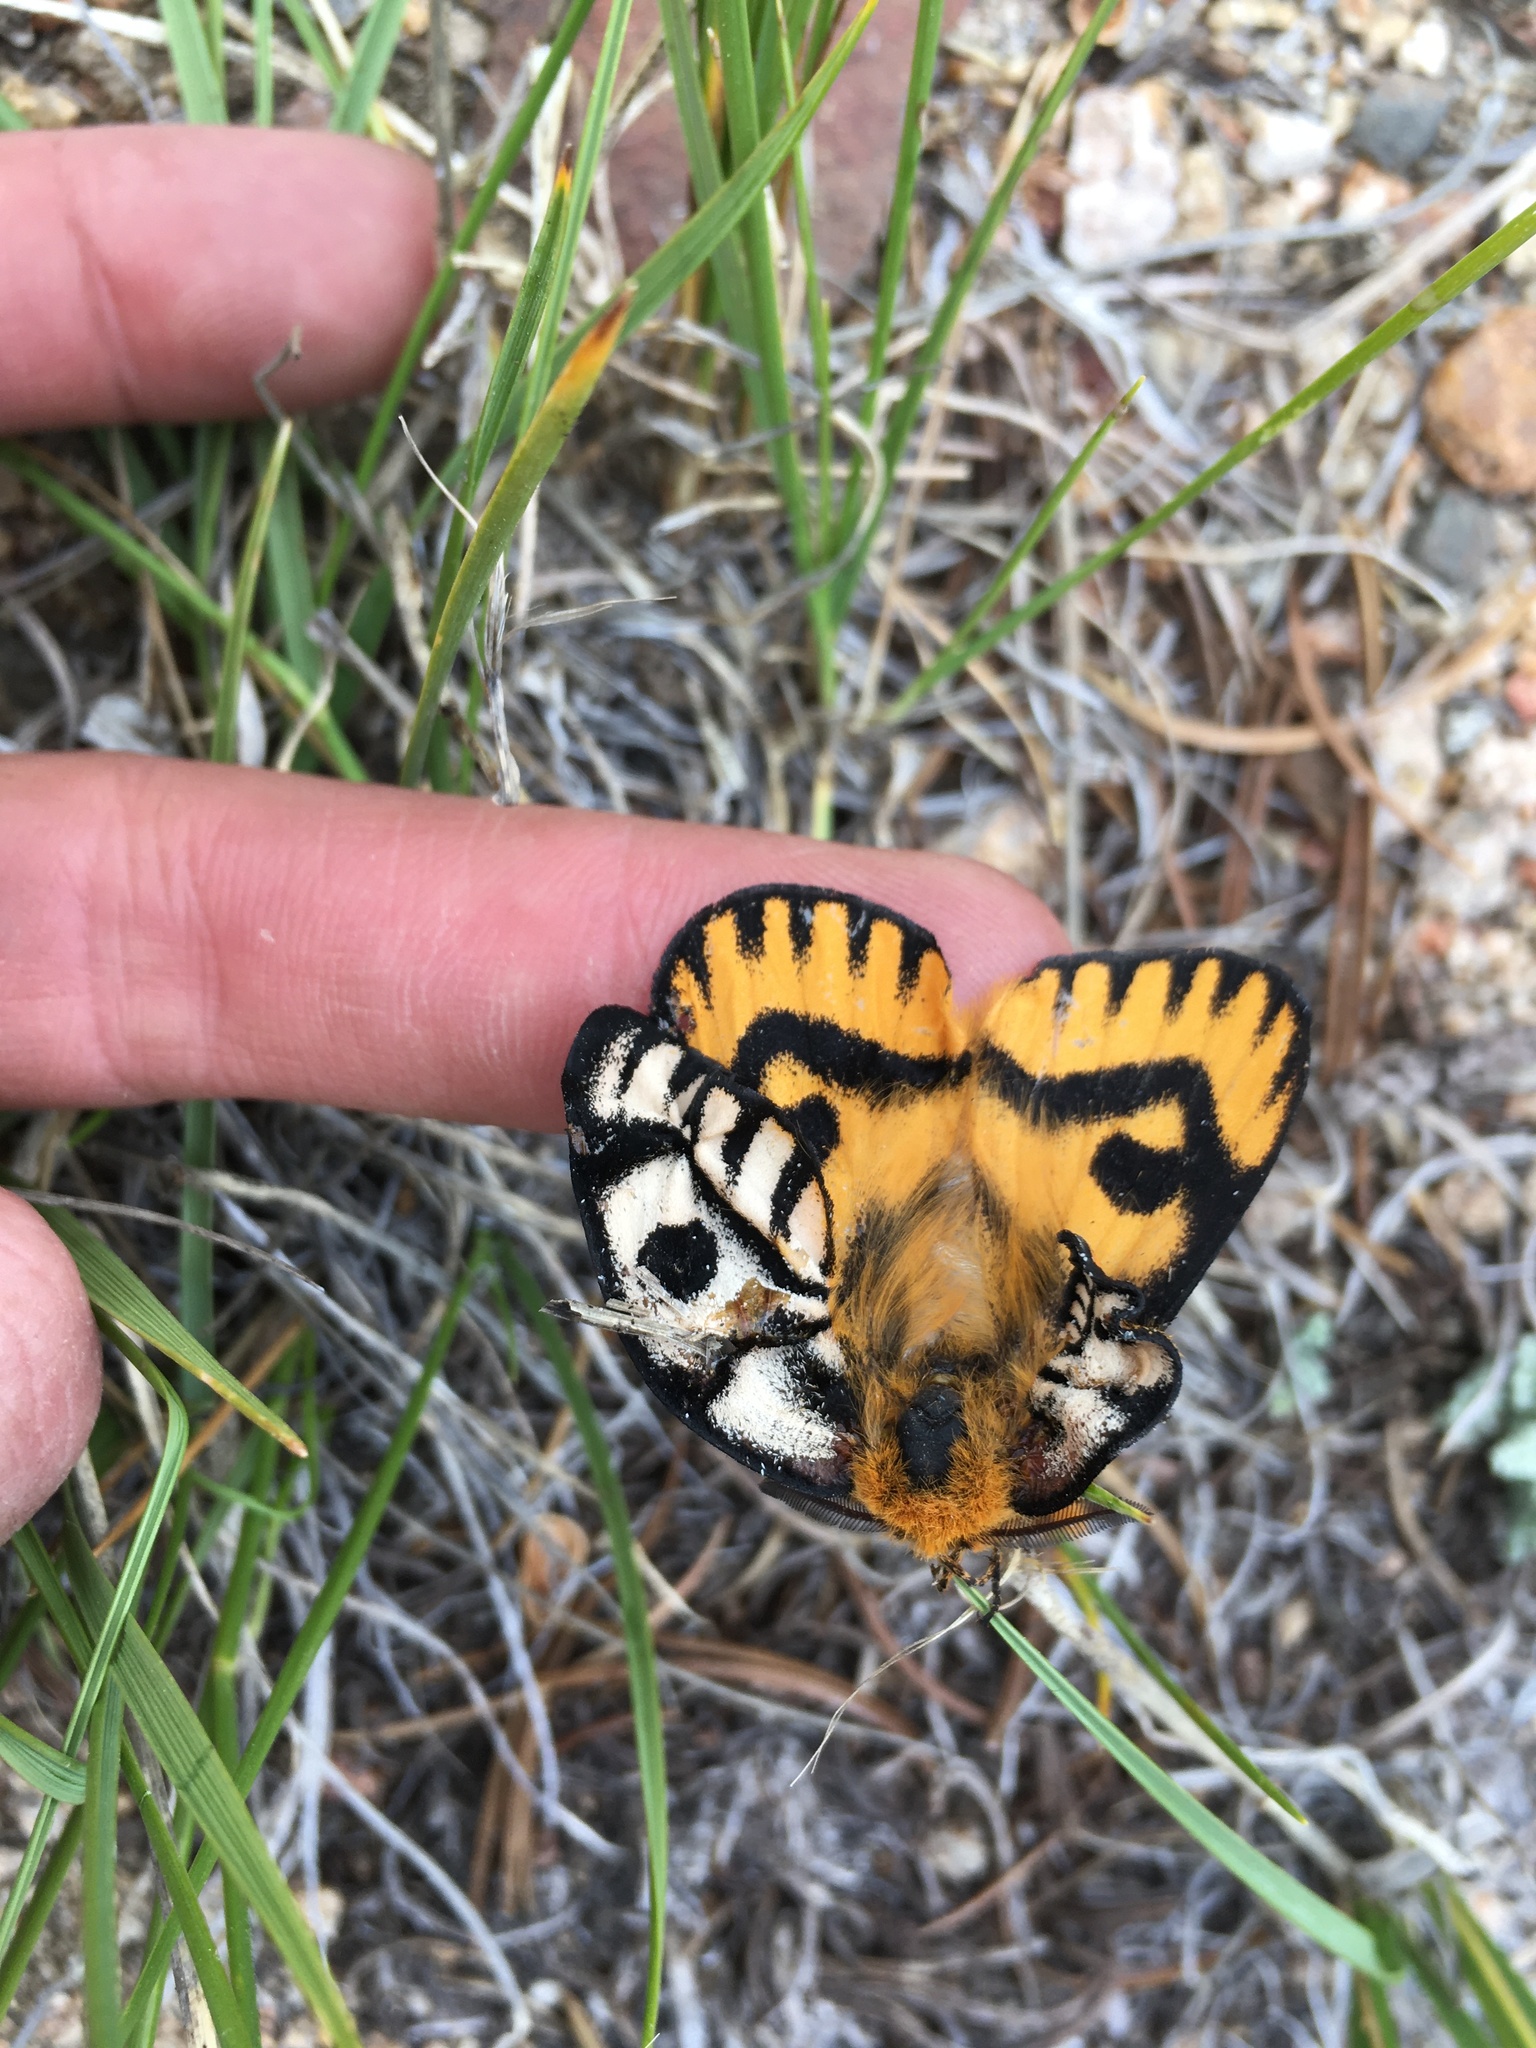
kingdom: Animalia
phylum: Arthropoda
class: Insecta
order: Lepidoptera
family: Saturniidae
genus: Hemileuca
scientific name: Hemileuca nutalli
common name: Nuttall's sheepmoth
